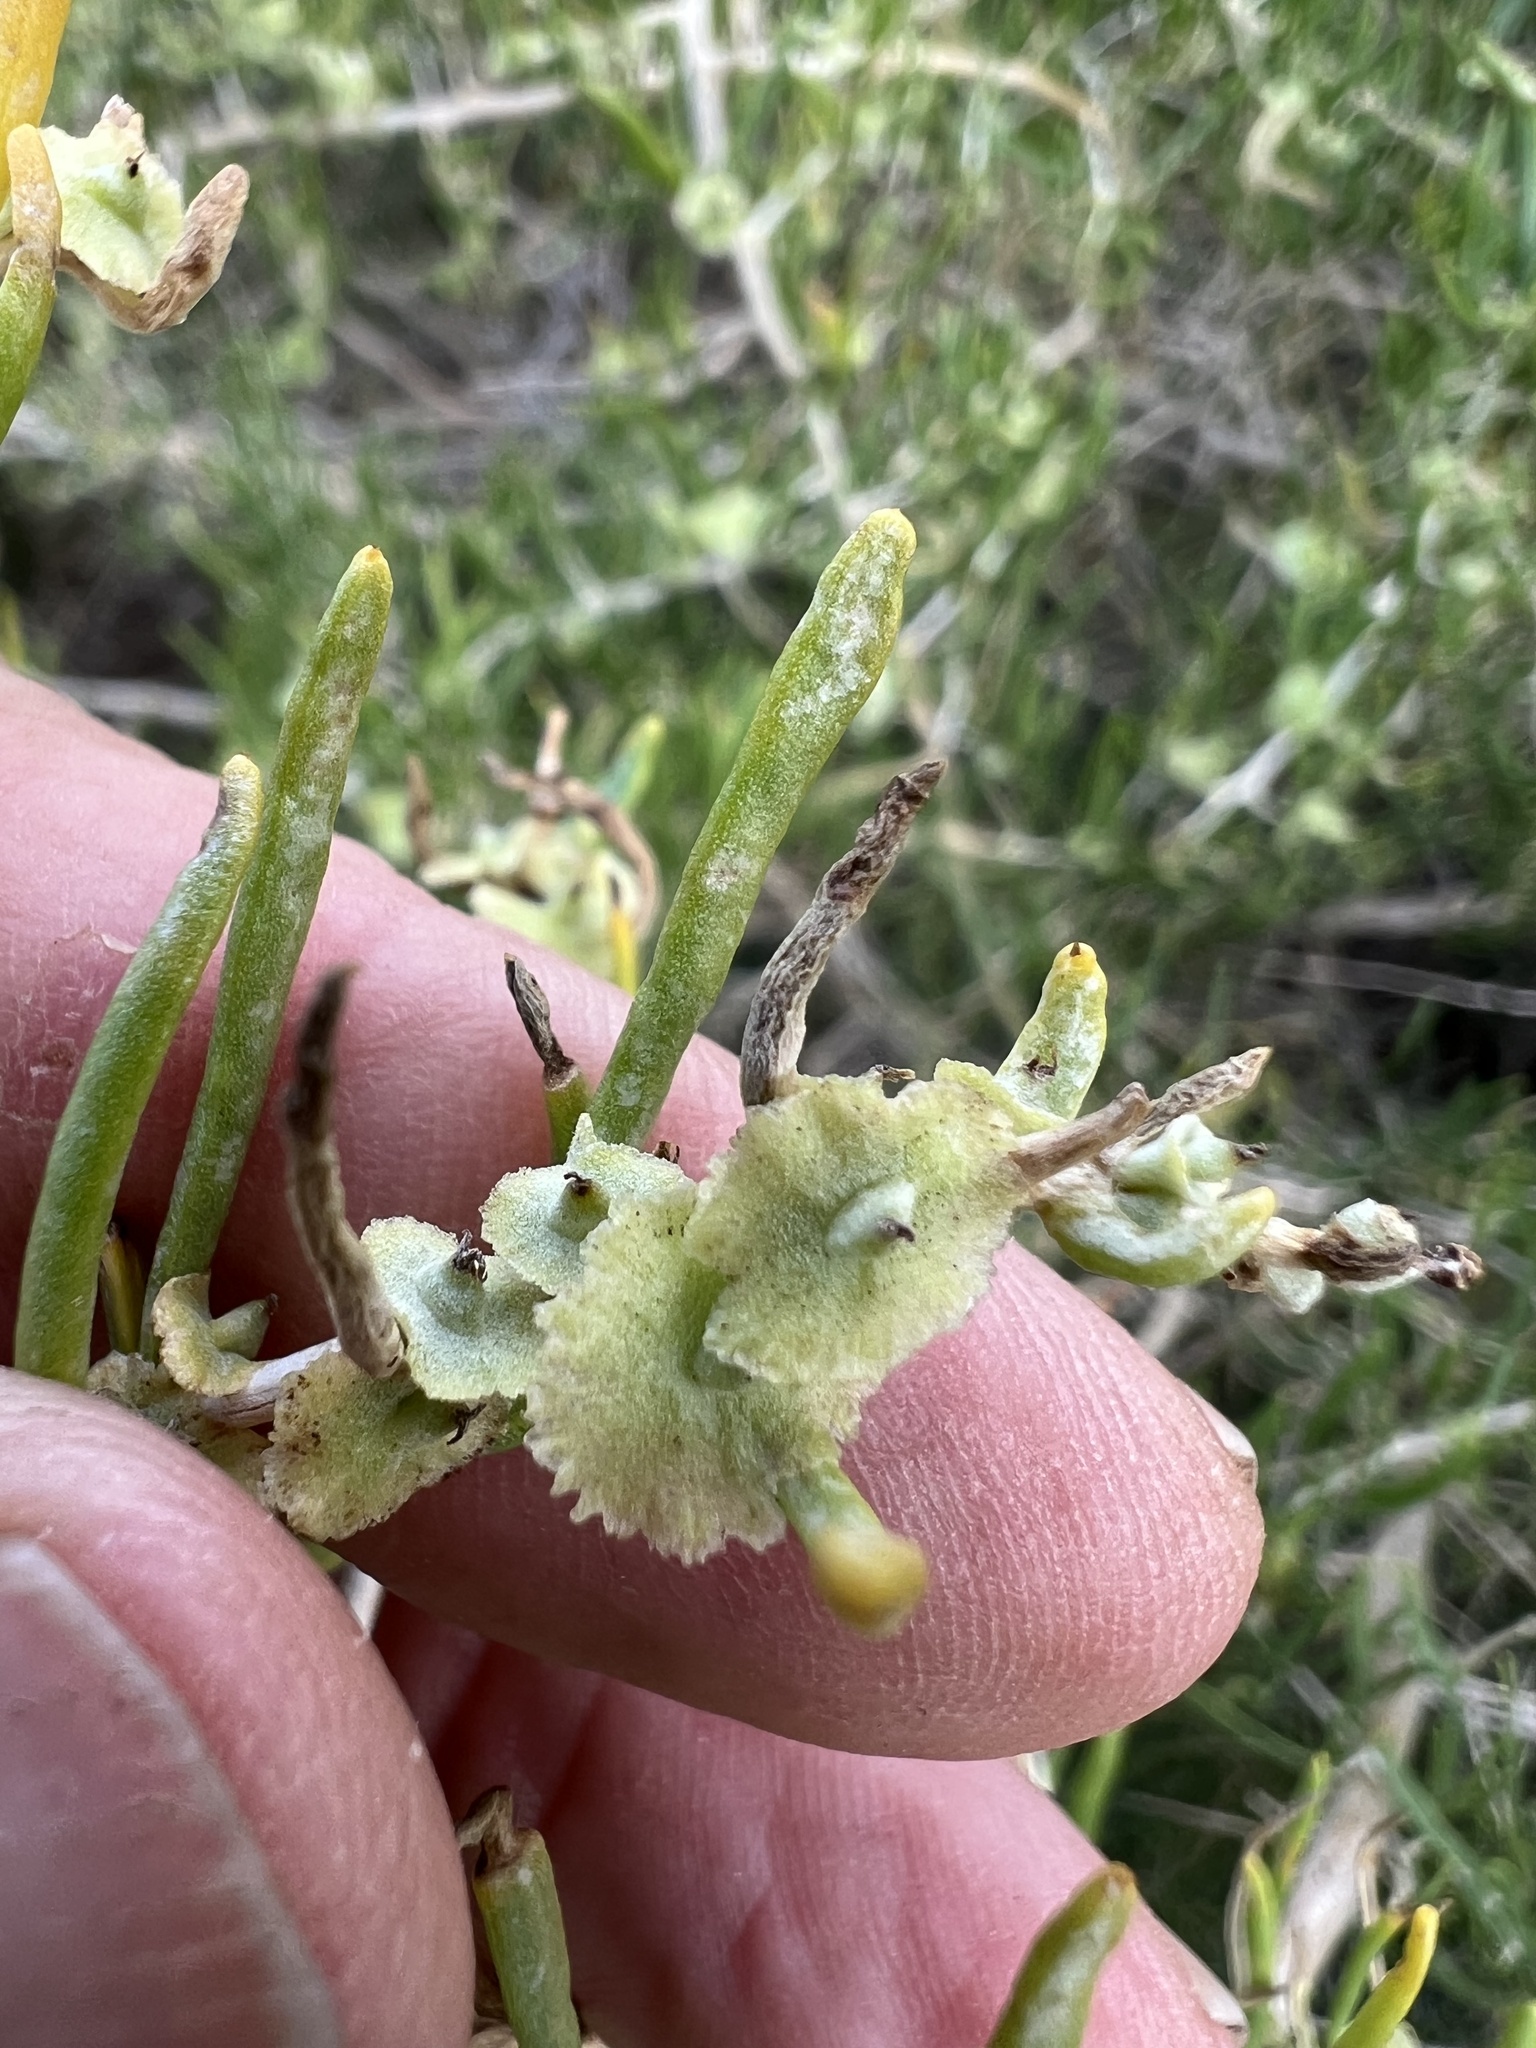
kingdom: Plantae
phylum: Tracheophyta
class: Magnoliopsida
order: Caryophyllales
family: Sarcobataceae
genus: Sarcobatus
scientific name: Sarcobatus vermiculatus
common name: Greasewood
